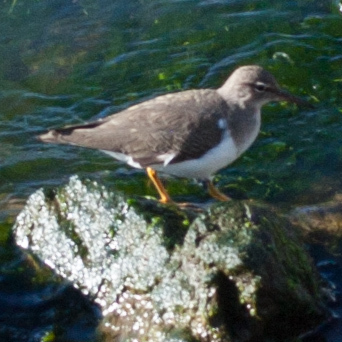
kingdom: Animalia
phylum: Chordata
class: Aves
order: Charadriiformes
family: Scolopacidae
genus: Actitis
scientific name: Actitis macularius
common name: Spotted sandpiper
